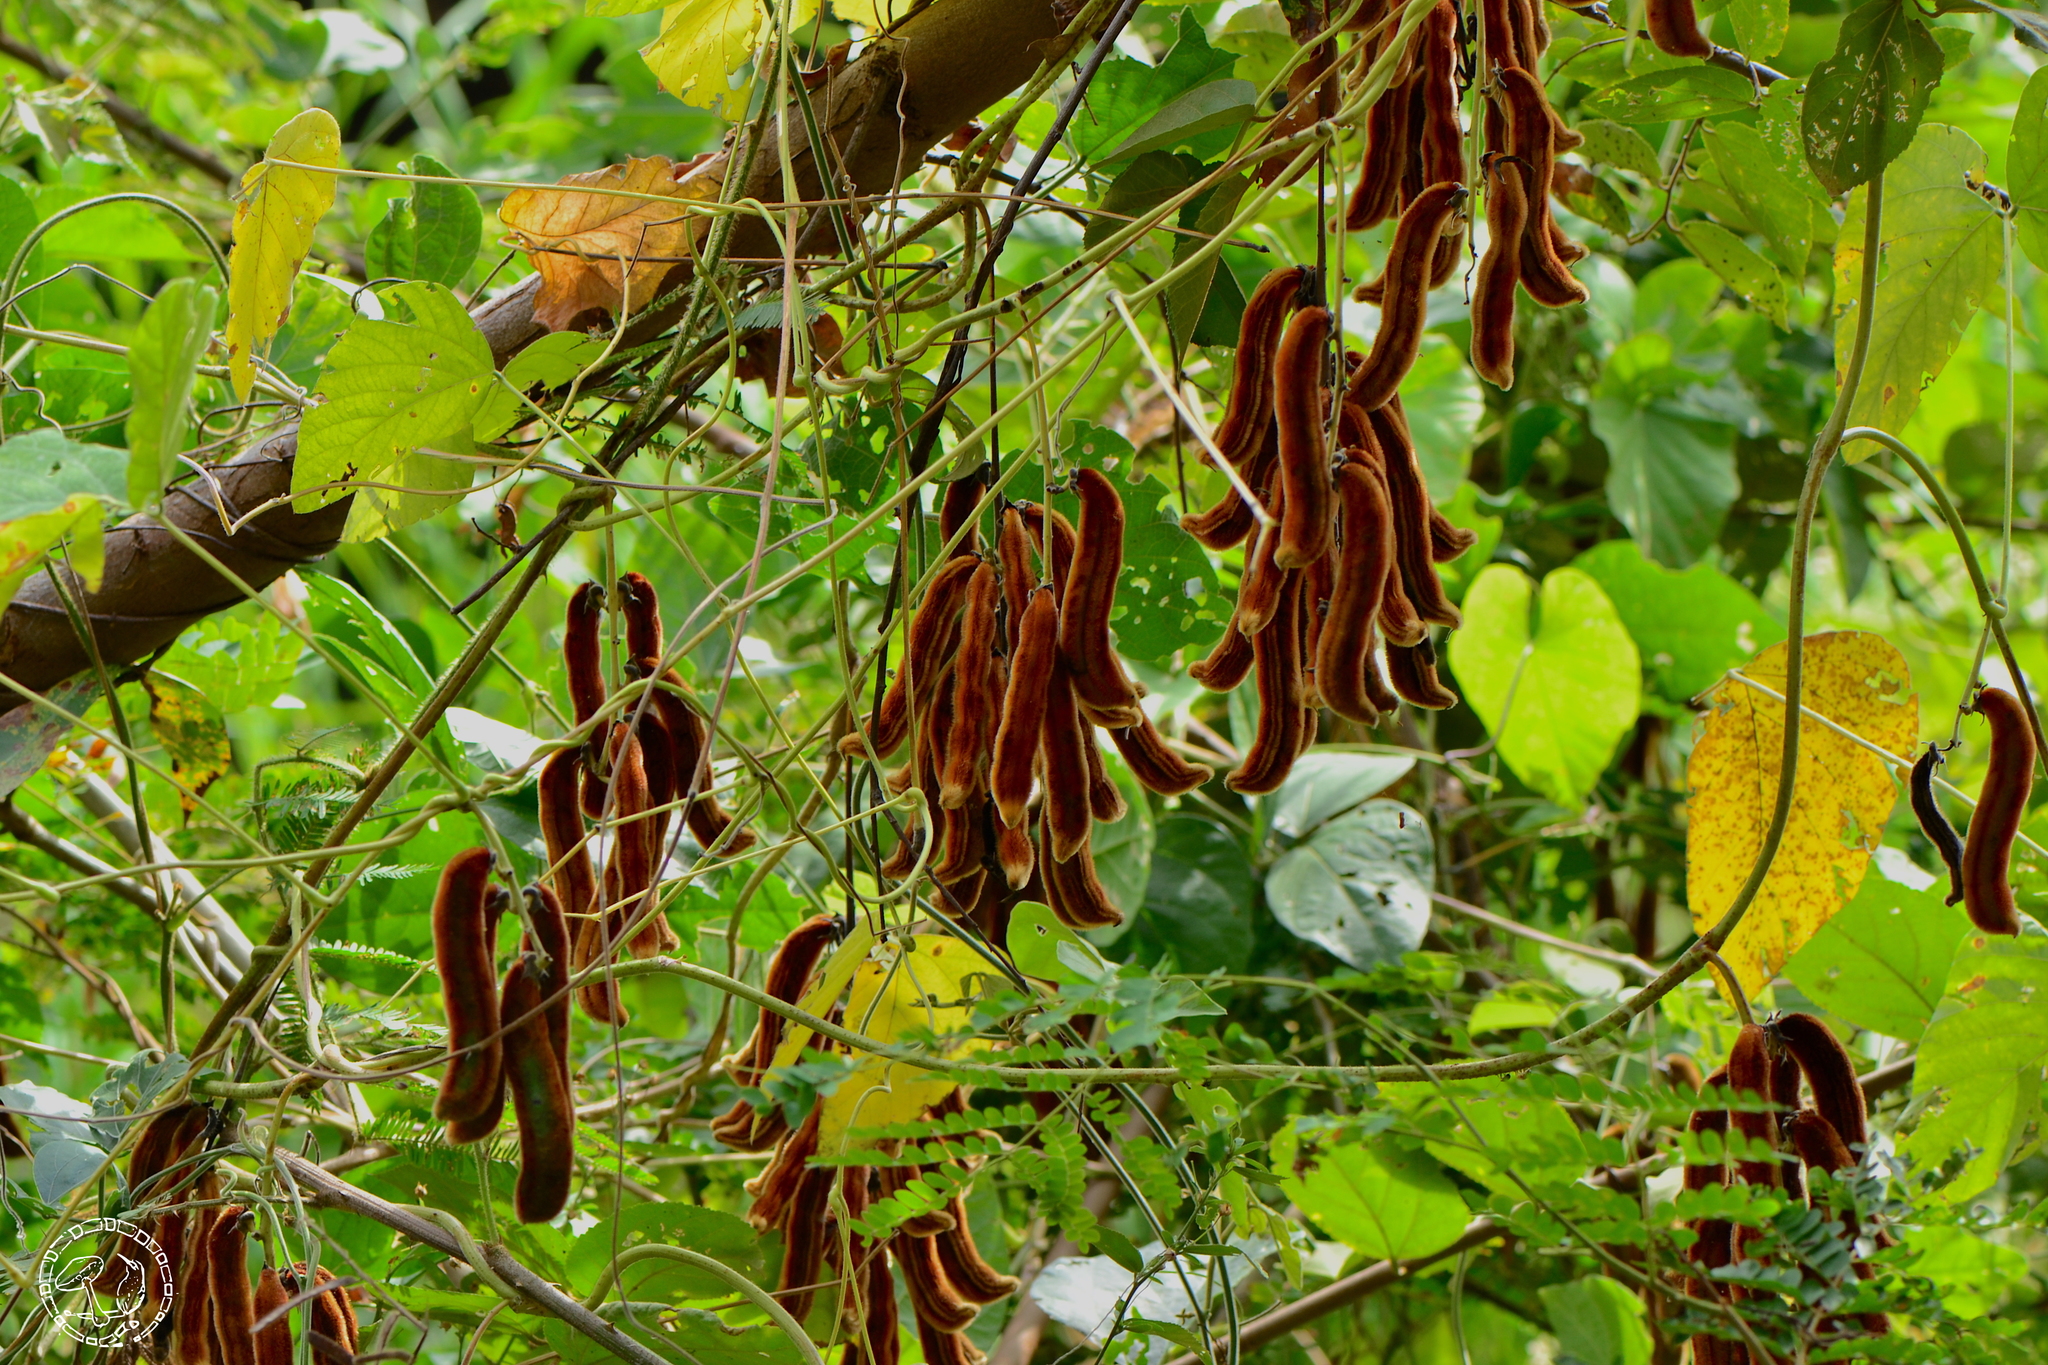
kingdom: Plantae
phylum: Tracheophyta
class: Magnoliopsida
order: Fabales
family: Fabaceae
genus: Mucuna
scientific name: Mucuna pruriens
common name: Cow-itch
